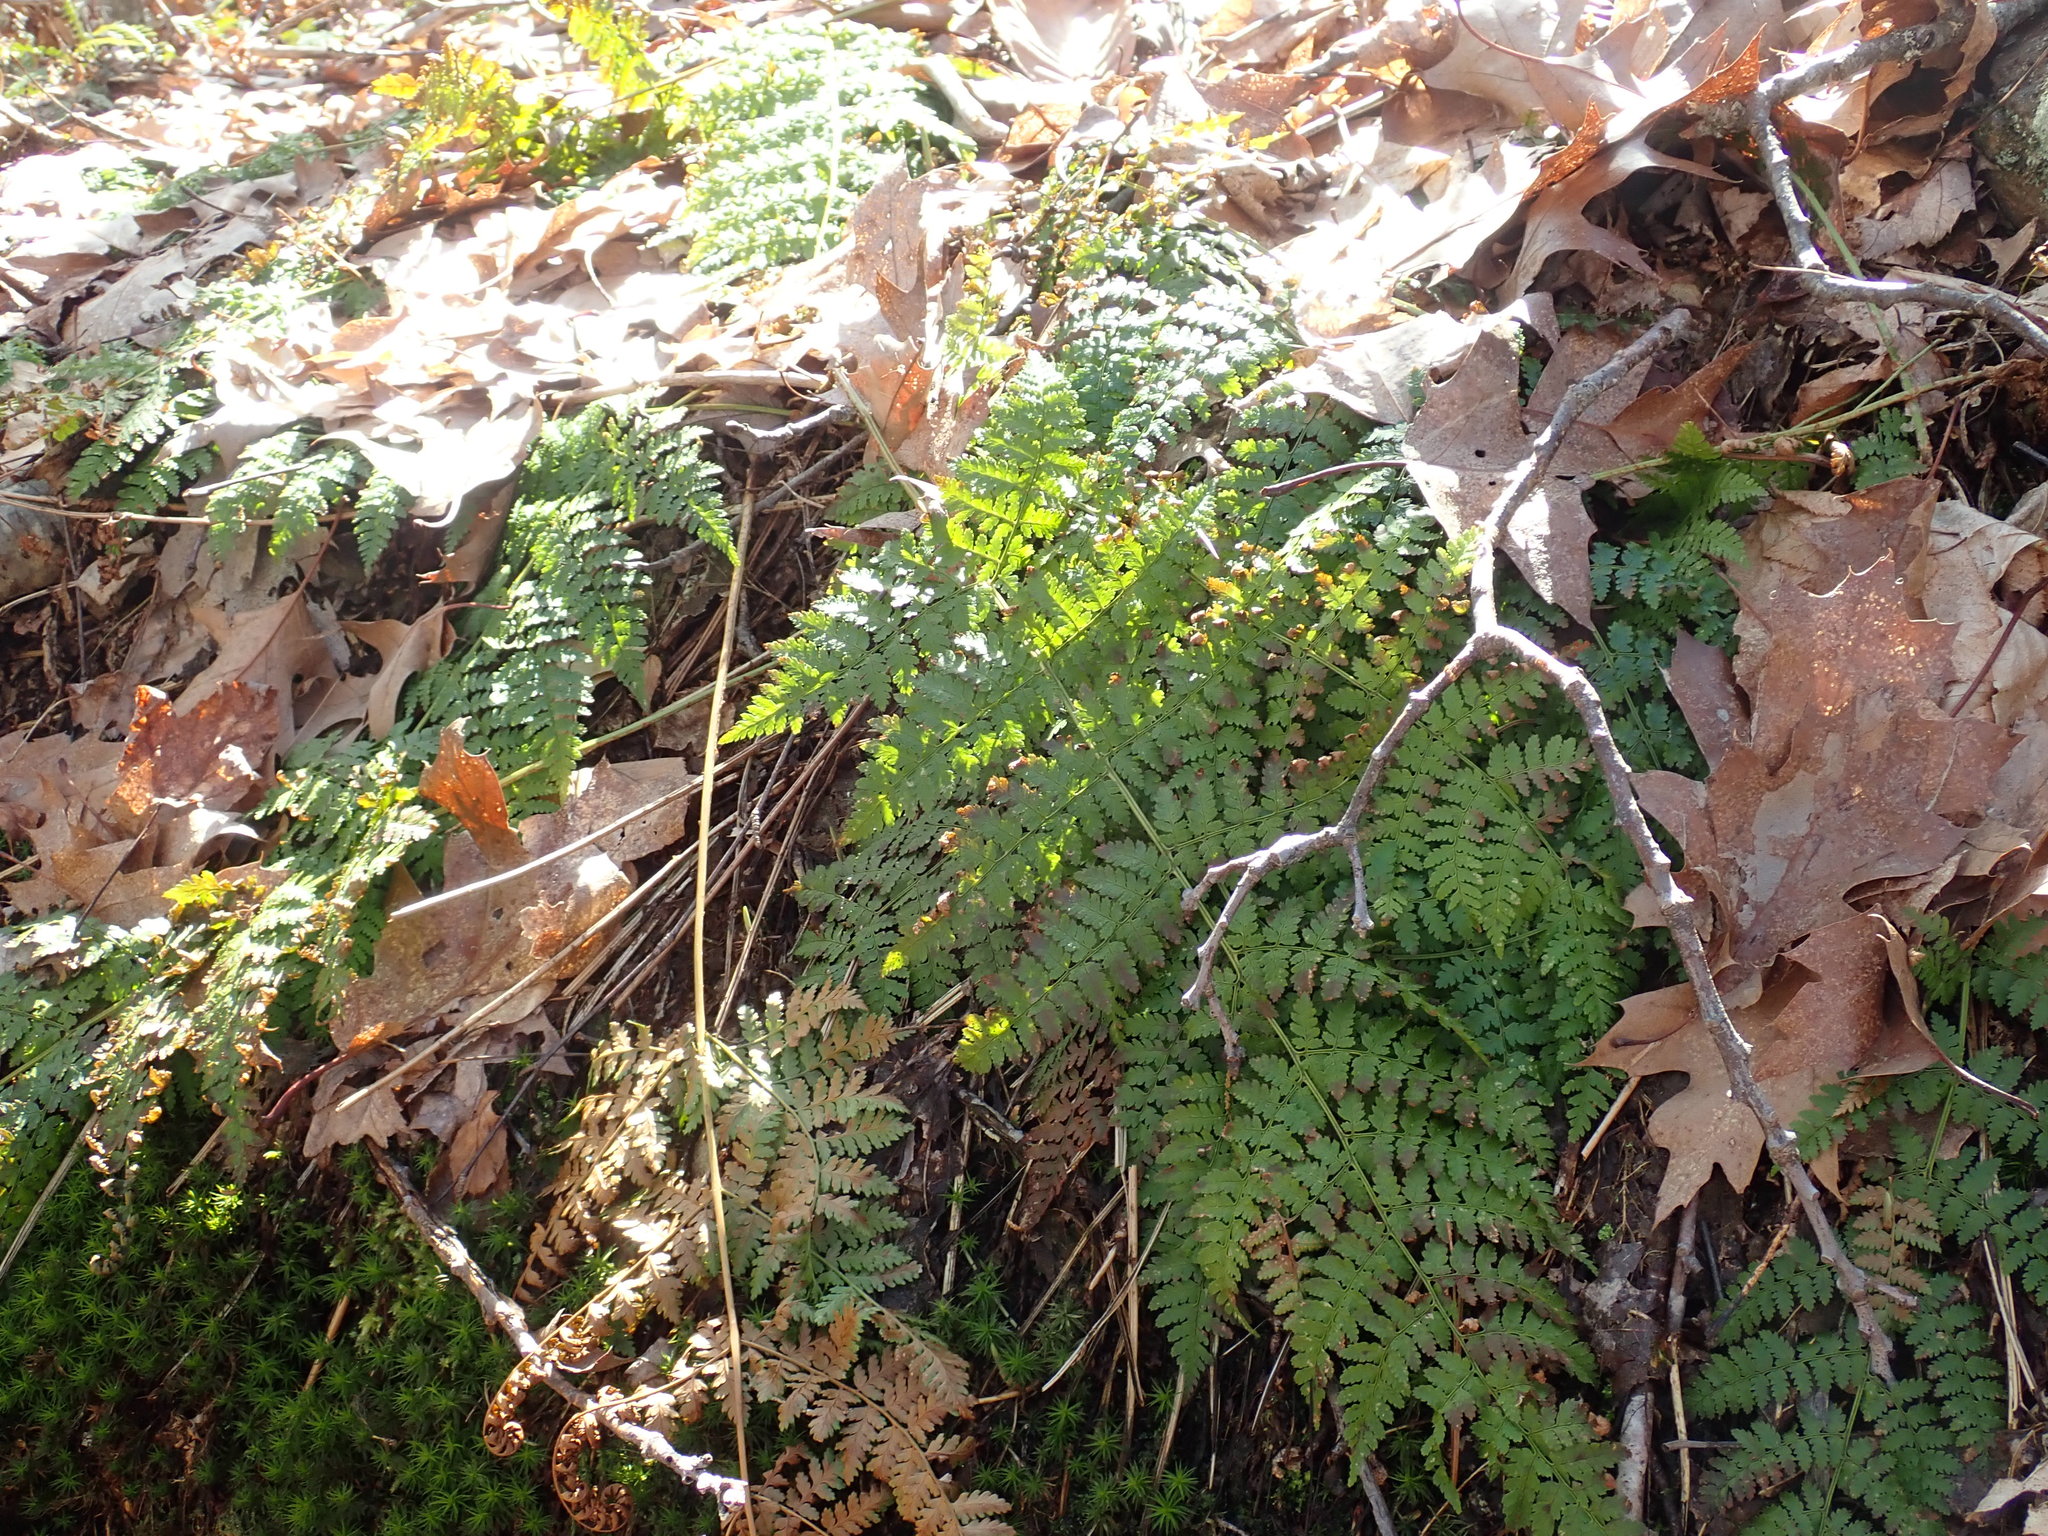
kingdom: Plantae
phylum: Tracheophyta
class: Polypodiopsida
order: Polypodiales
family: Dryopteridaceae
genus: Dryopteris
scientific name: Dryopteris intermedia
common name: Evergreen wood fern
